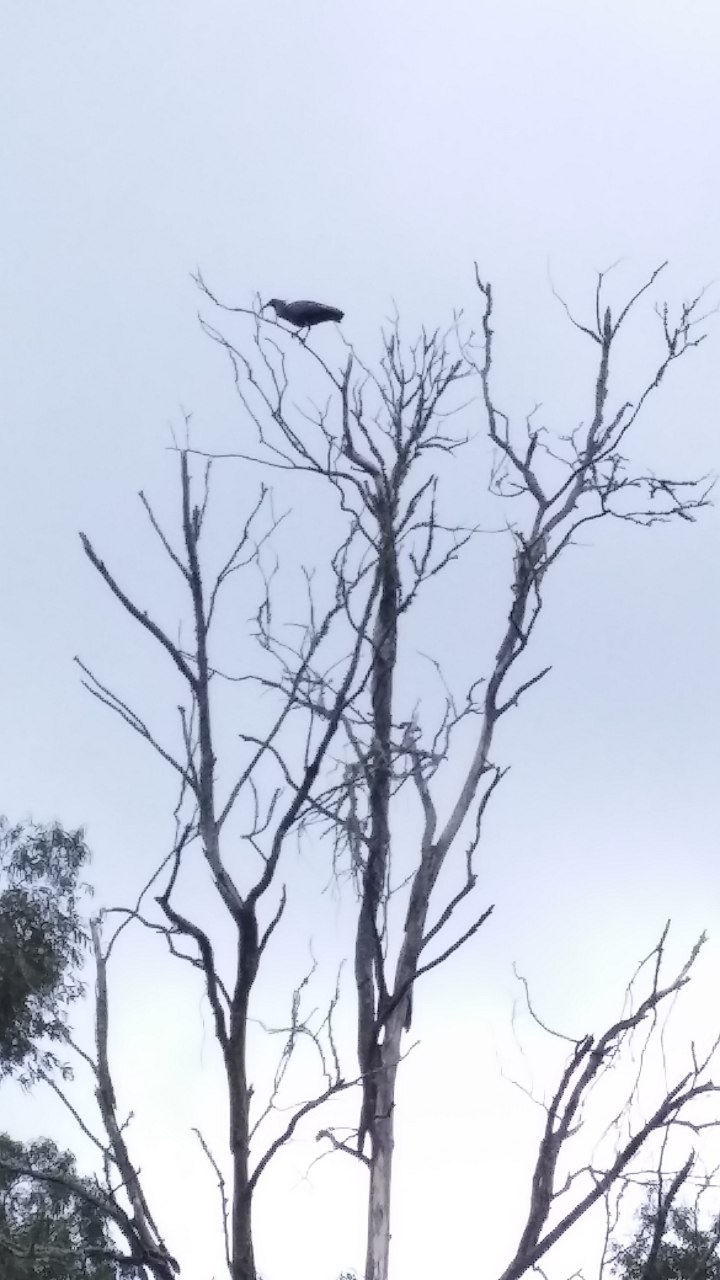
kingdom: Animalia
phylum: Chordata
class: Aves
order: Pelecaniformes
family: Threskiornithidae
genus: Theristicus
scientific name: Theristicus caerulescens
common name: Plumbeous ibis
